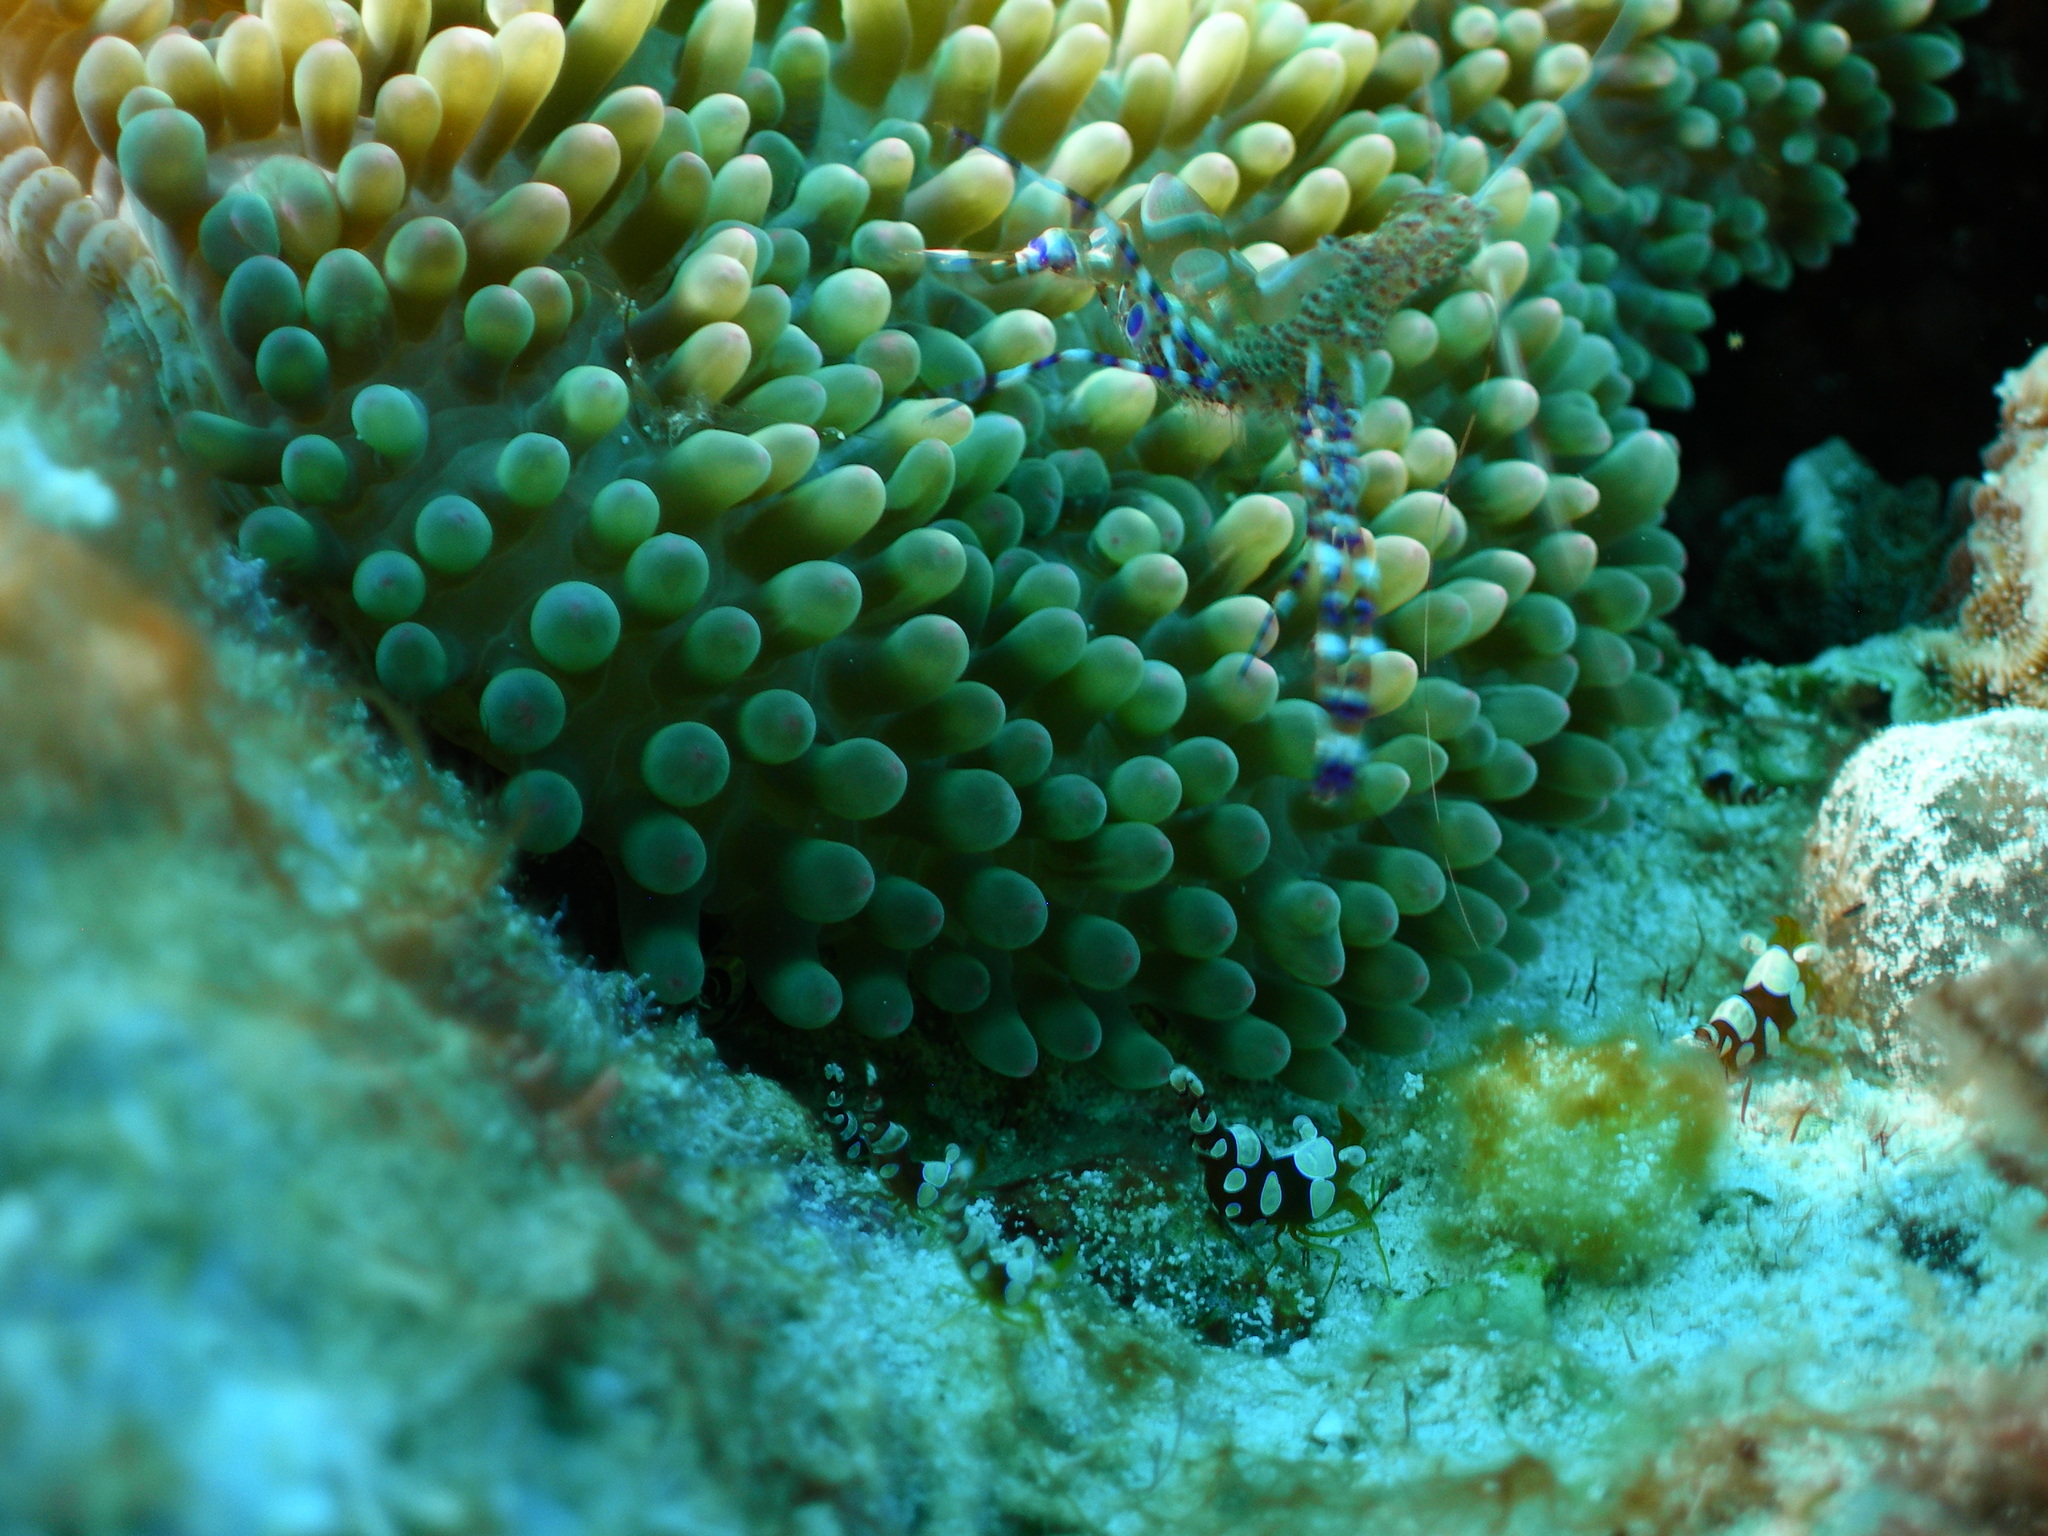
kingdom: Animalia
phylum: Arthropoda
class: Malacostraca
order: Decapoda
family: Palaemonidae
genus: Ancylomenes
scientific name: Ancylomenes pedersoni
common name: Pederson's cleaning shrimp
